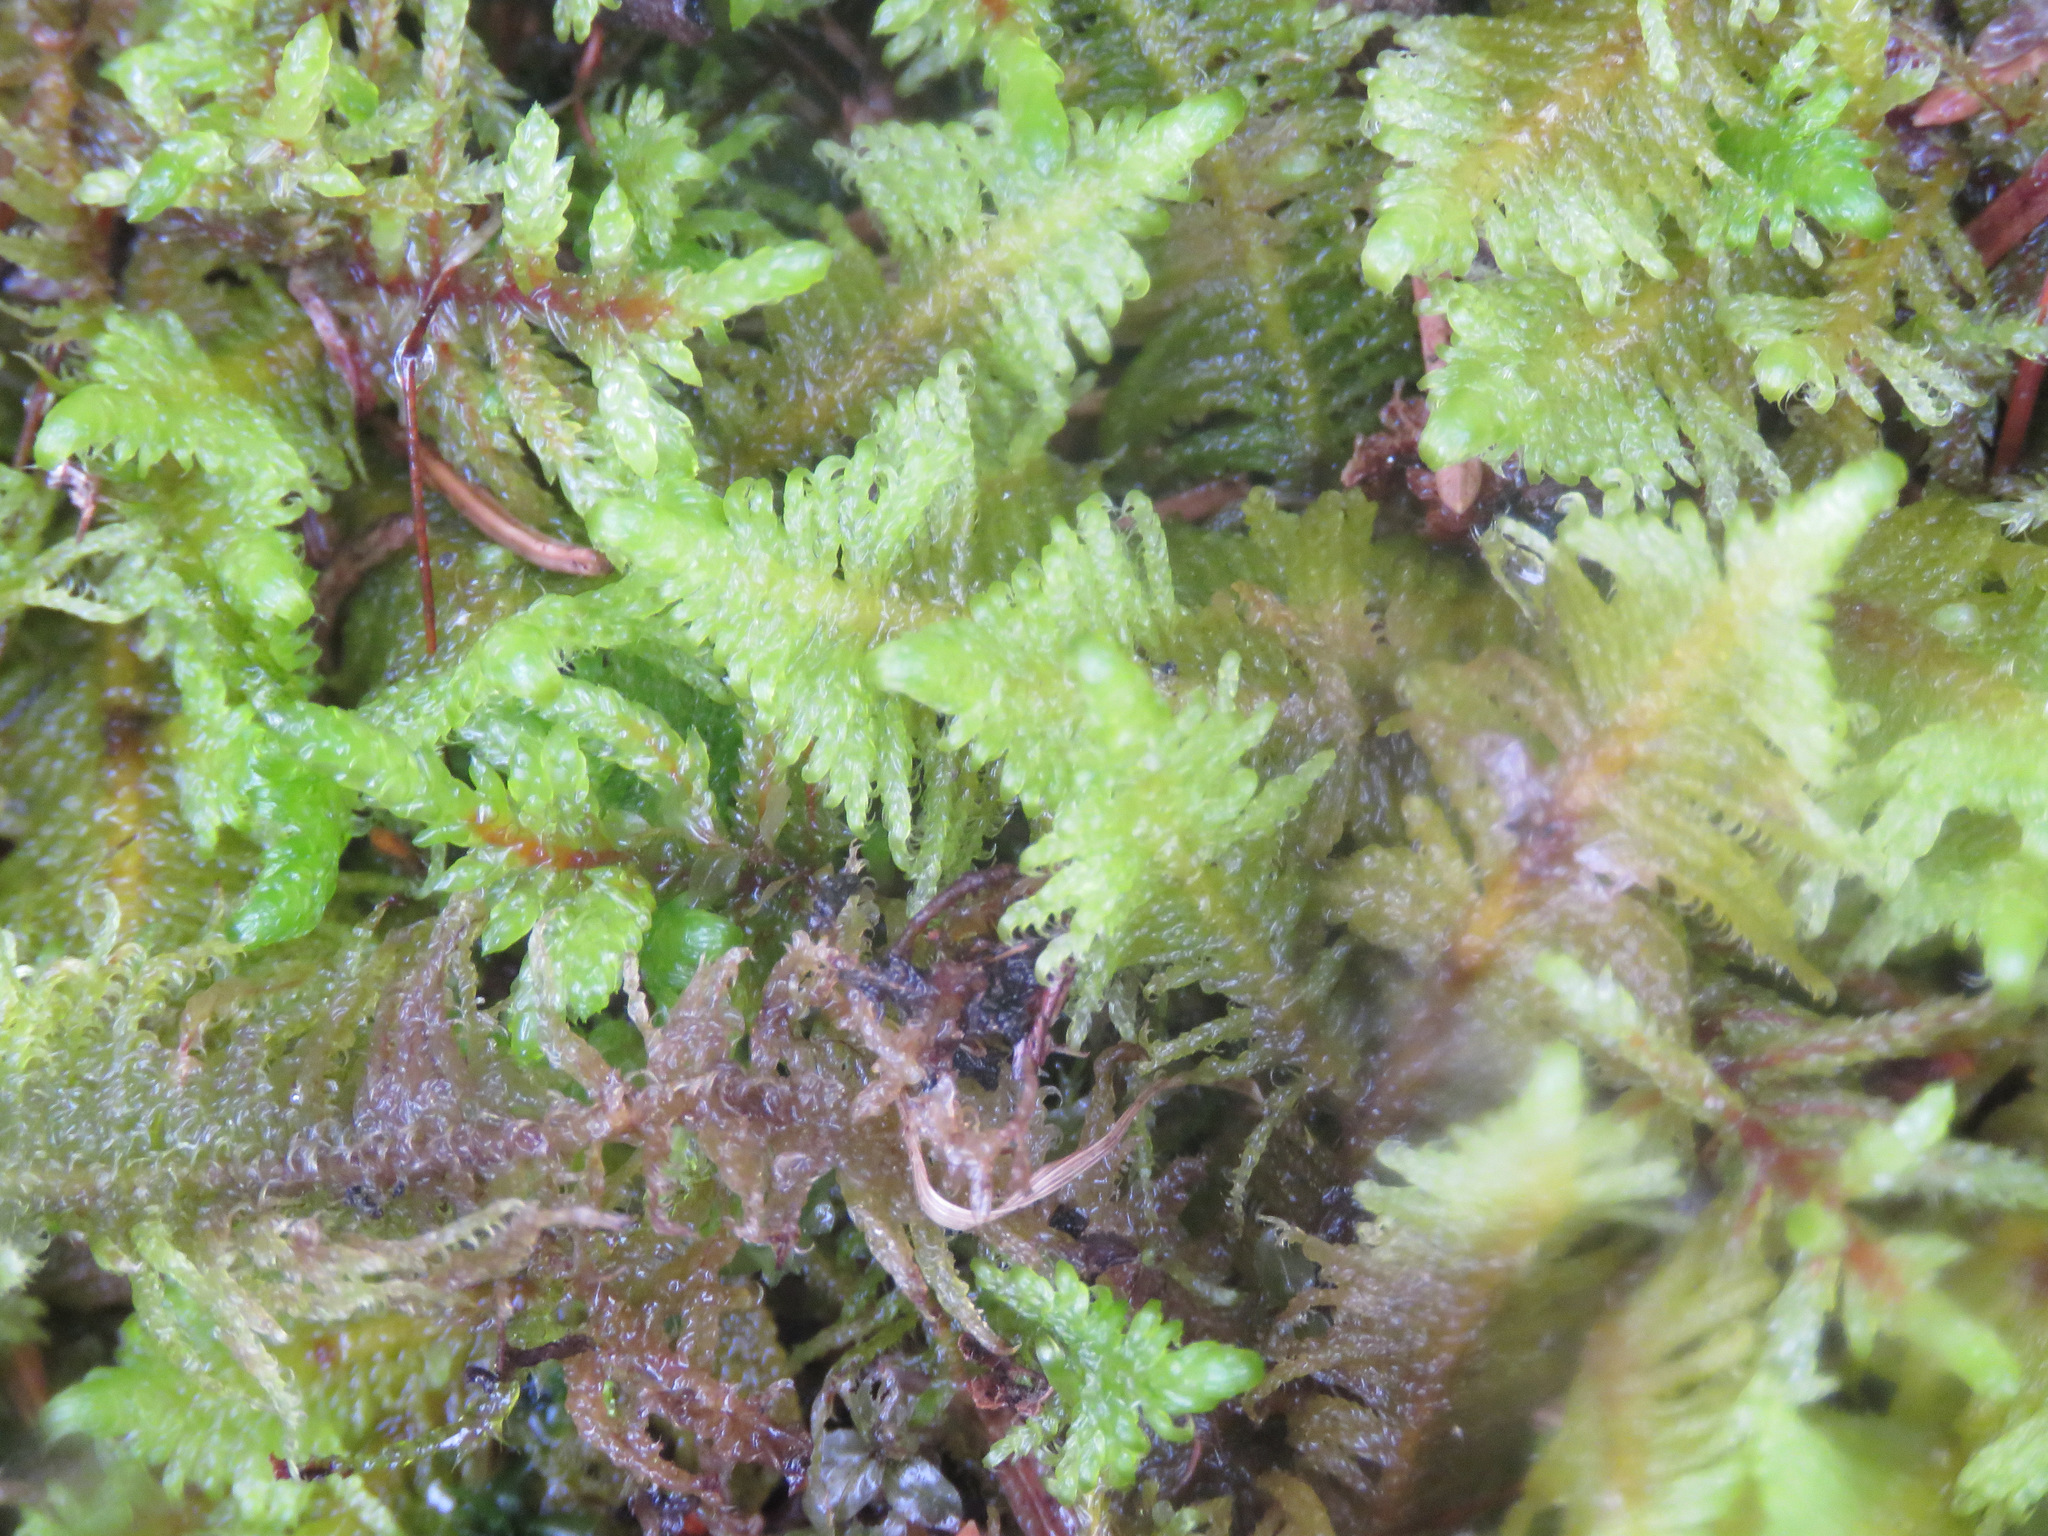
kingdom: Plantae
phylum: Bryophyta
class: Bryopsida
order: Hypnales
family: Pylaisiaceae
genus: Ptilium
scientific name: Ptilium crista-castrensis
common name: Knight's plume moss
